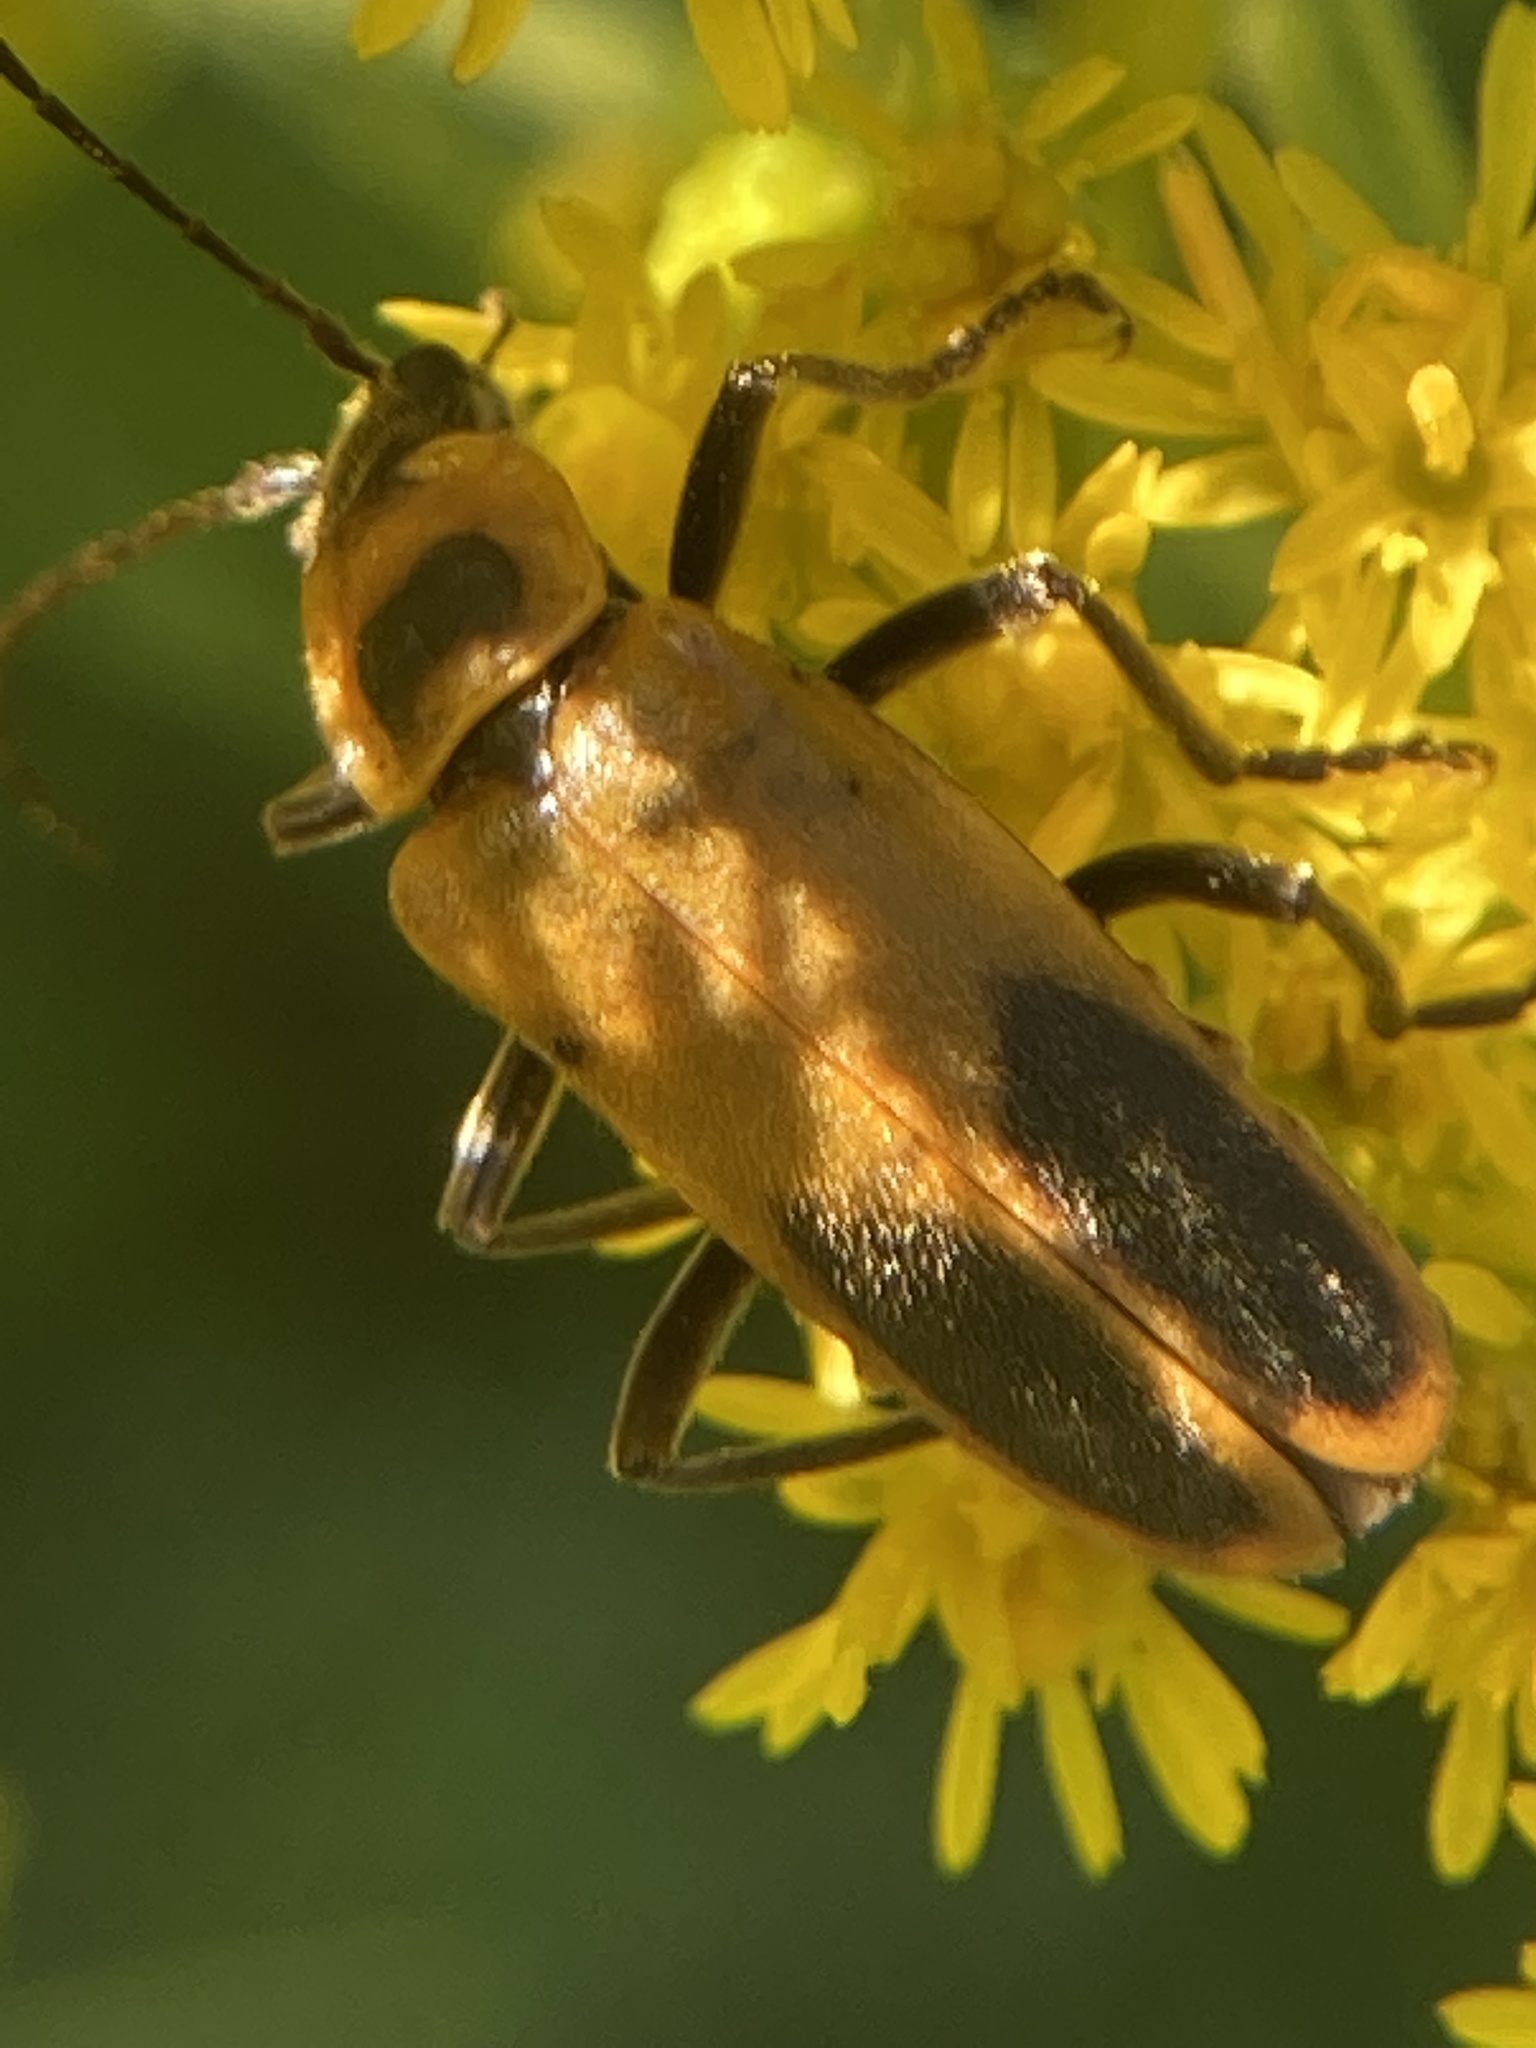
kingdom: Animalia
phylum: Arthropoda
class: Insecta
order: Coleoptera
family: Cantharidae
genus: Chauliognathus
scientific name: Chauliognathus pensylvanicus
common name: Goldenrod soldier beetle
